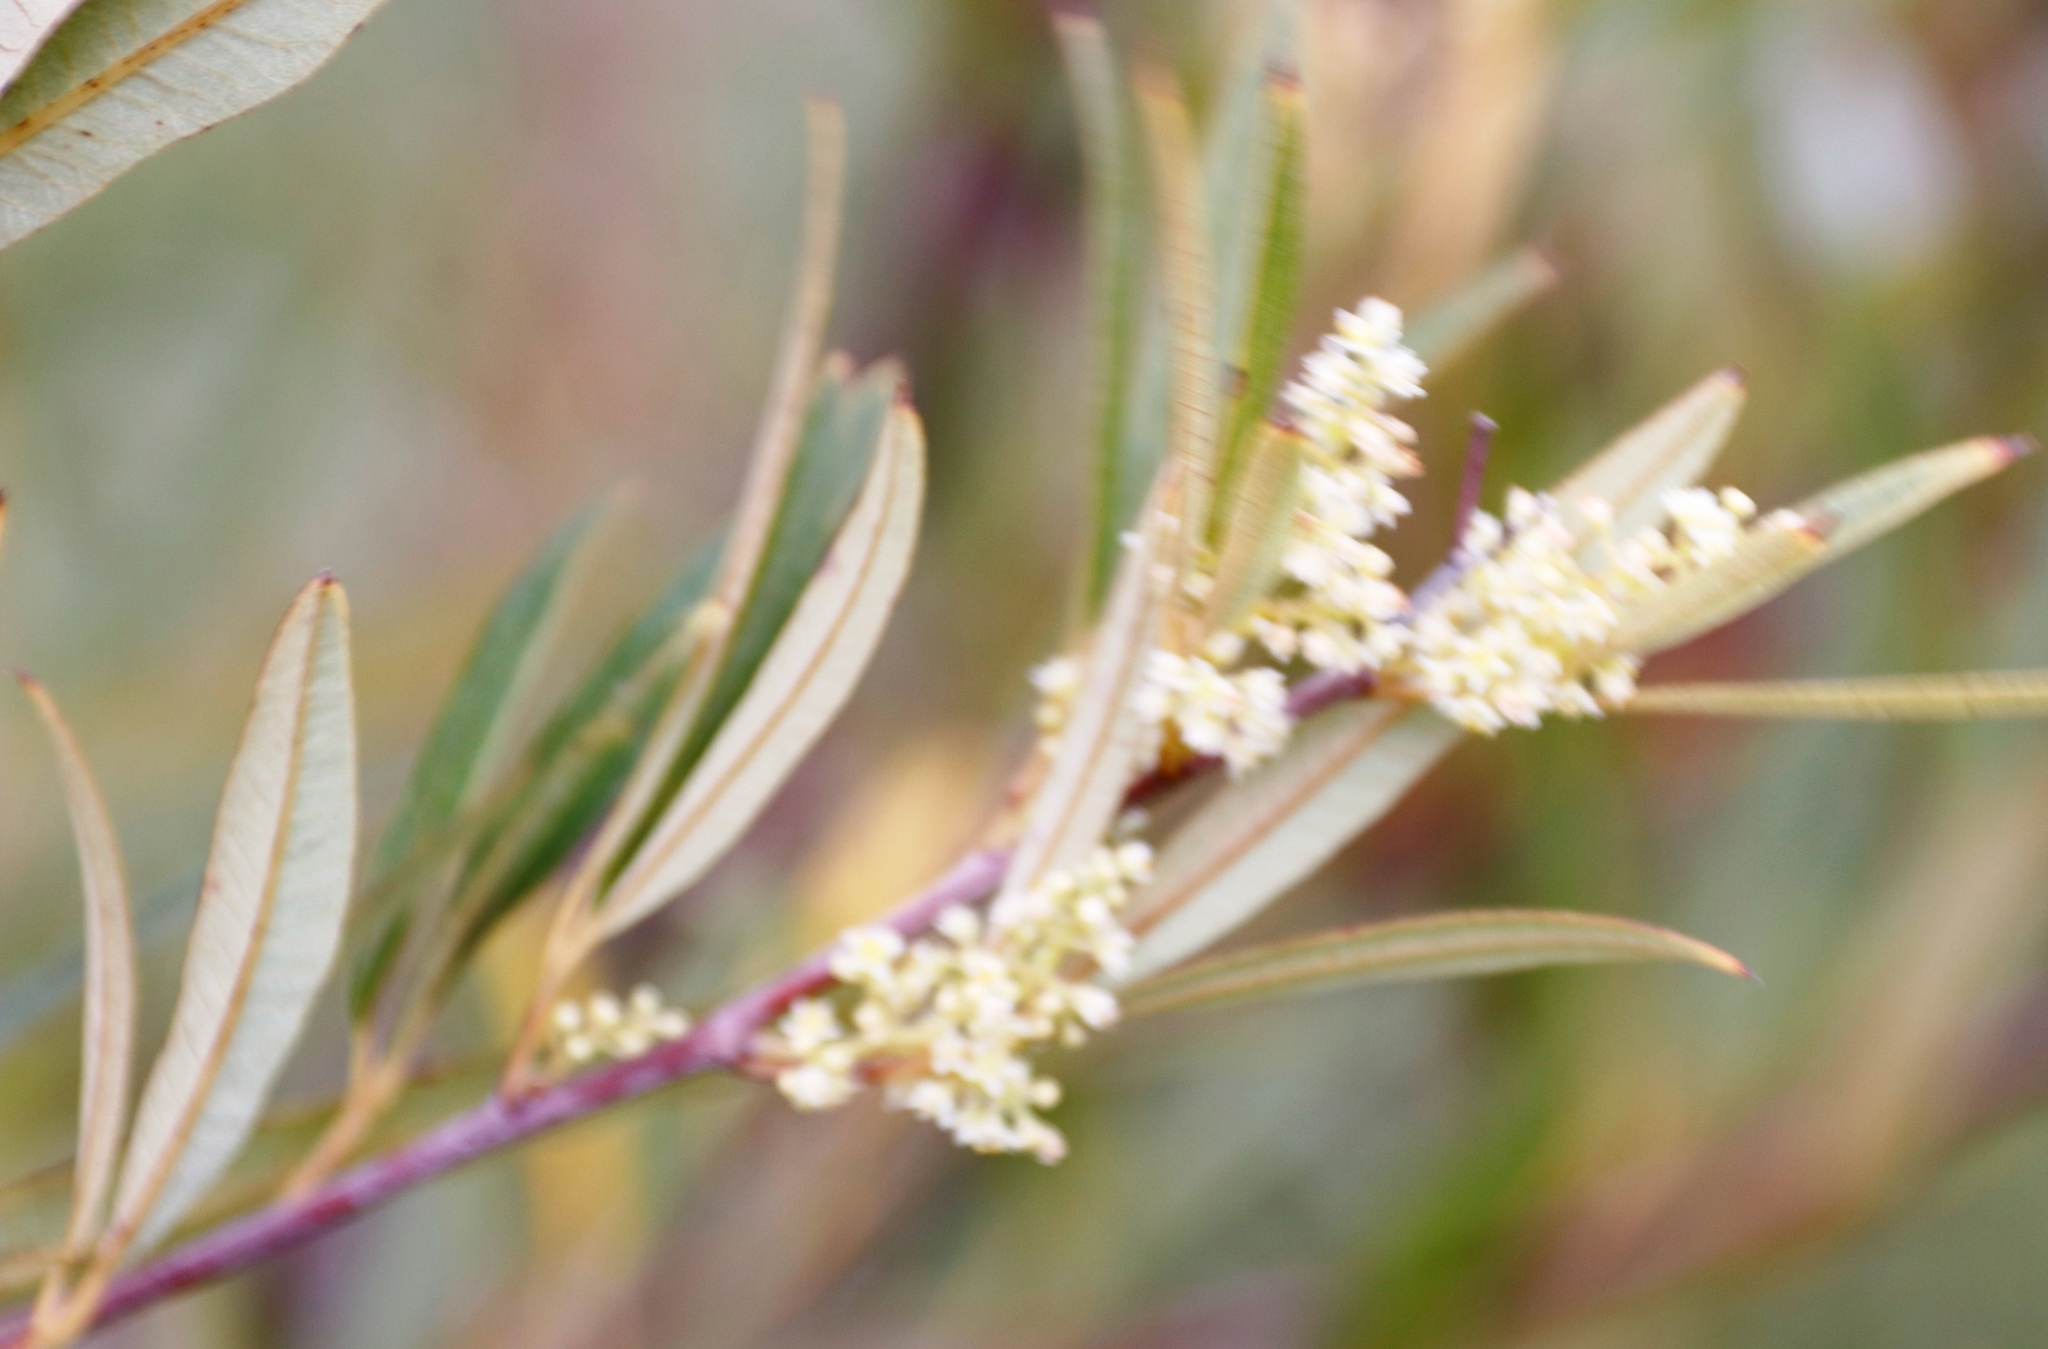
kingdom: Plantae
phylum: Tracheophyta
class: Magnoliopsida
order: Sapindales
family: Anacardiaceae
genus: Searsia
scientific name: Searsia angustifolia
